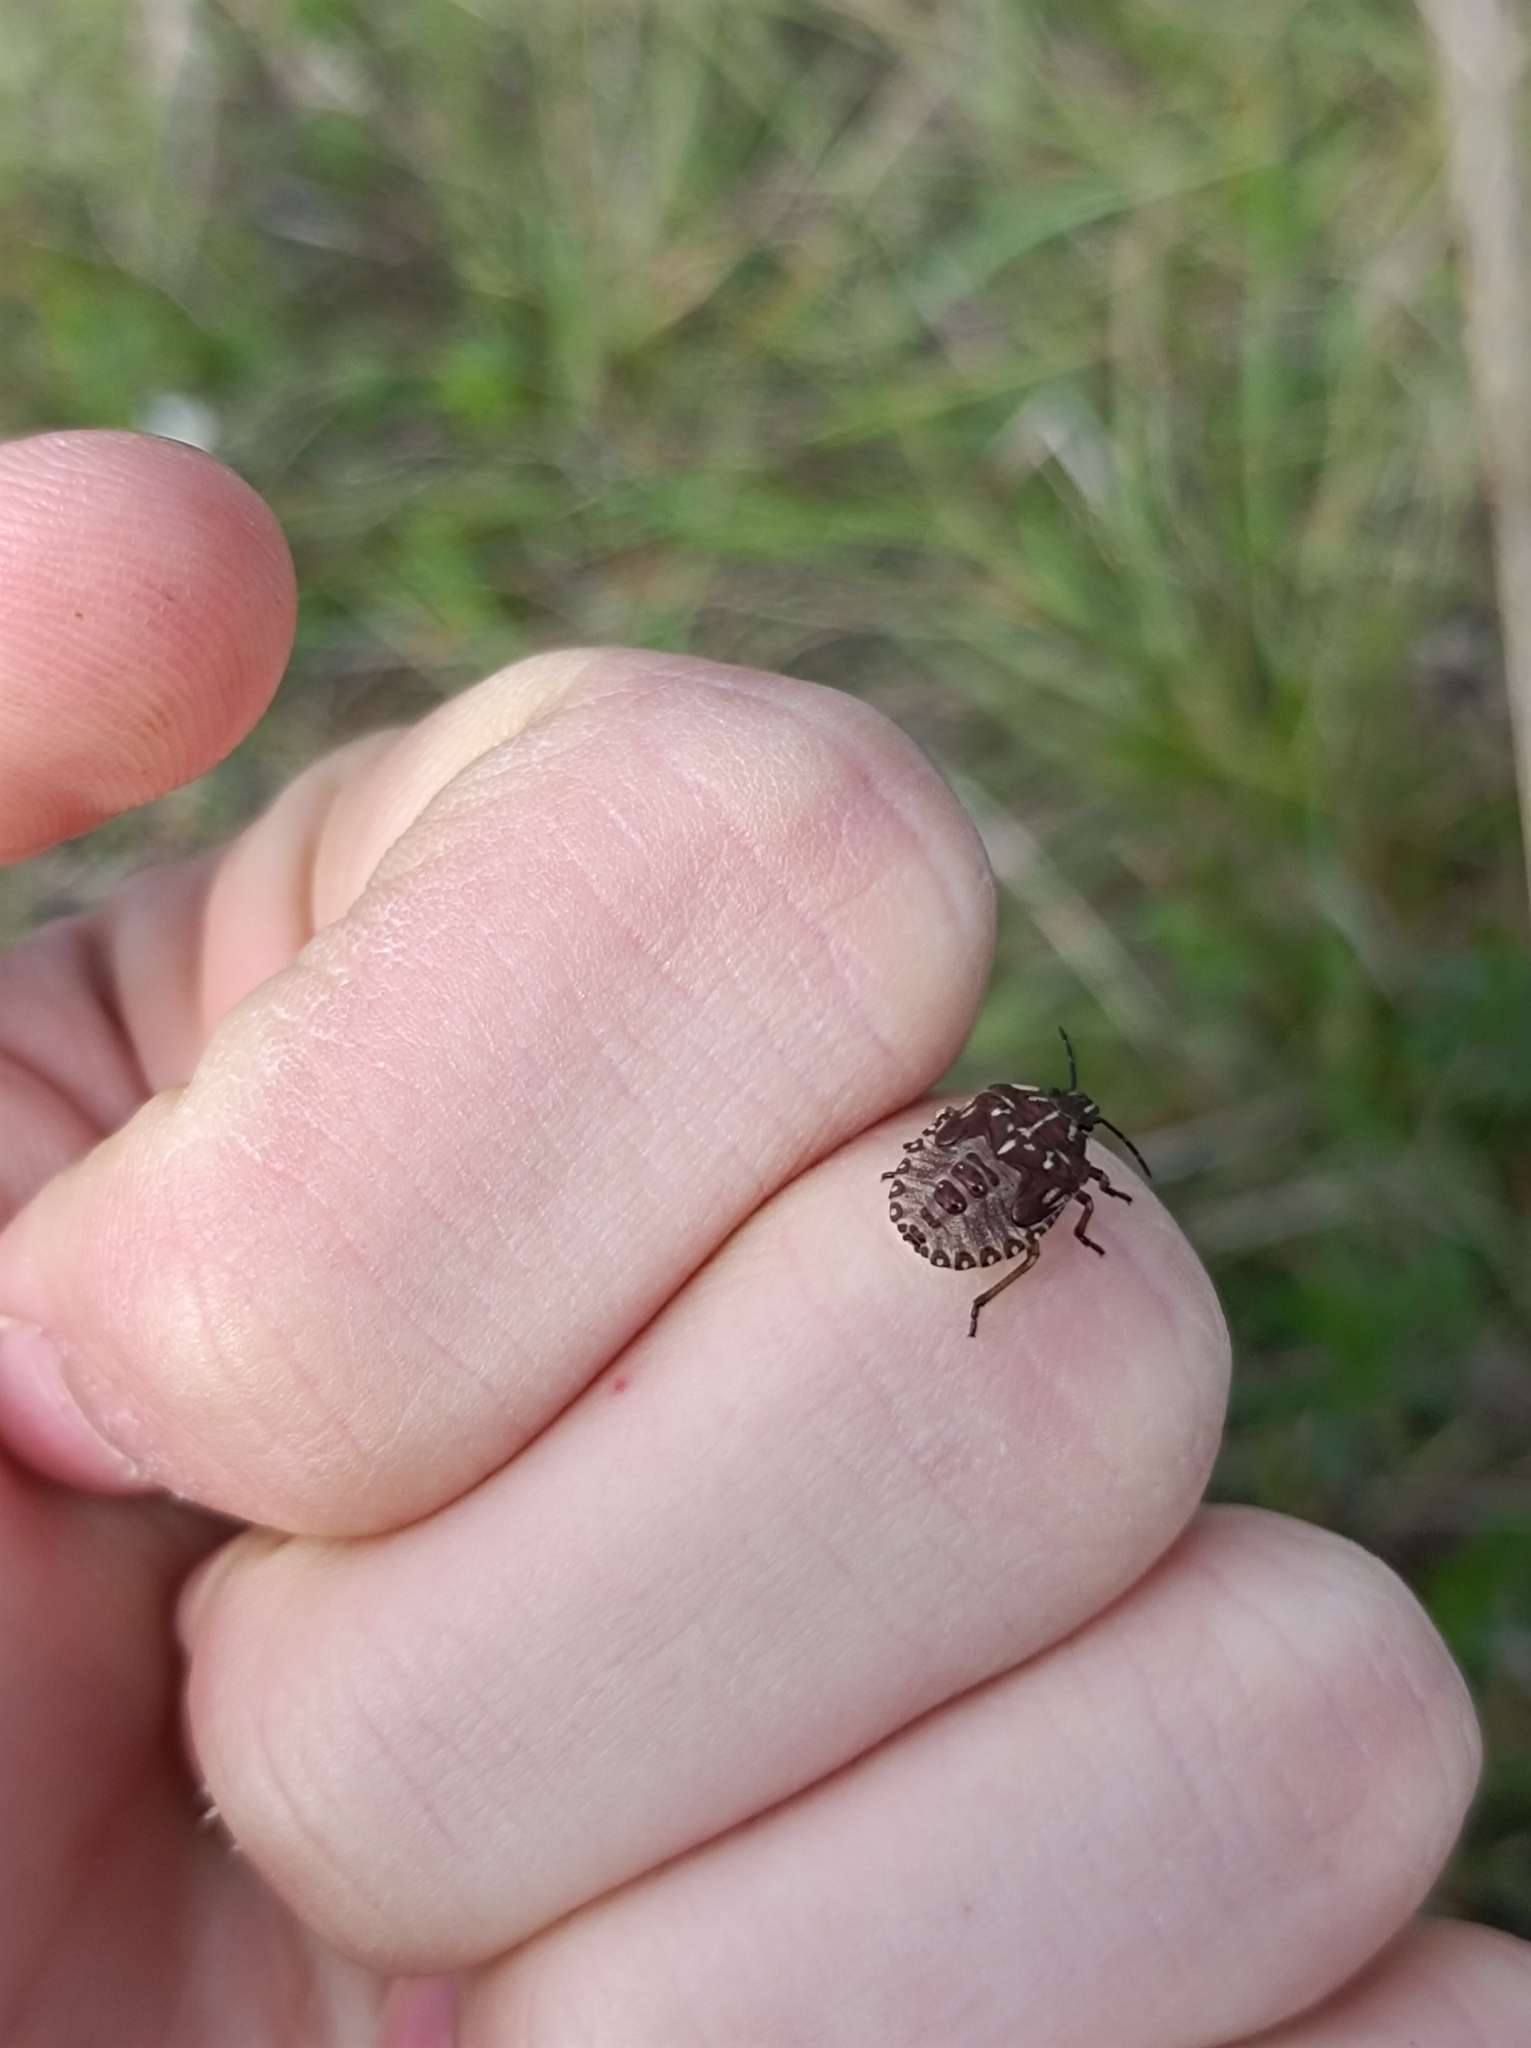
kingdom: Animalia
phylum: Arthropoda
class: Insecta
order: Hemiptera
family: Pentatomidae
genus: Carpocoris
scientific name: Carpocoris purpureipennis
